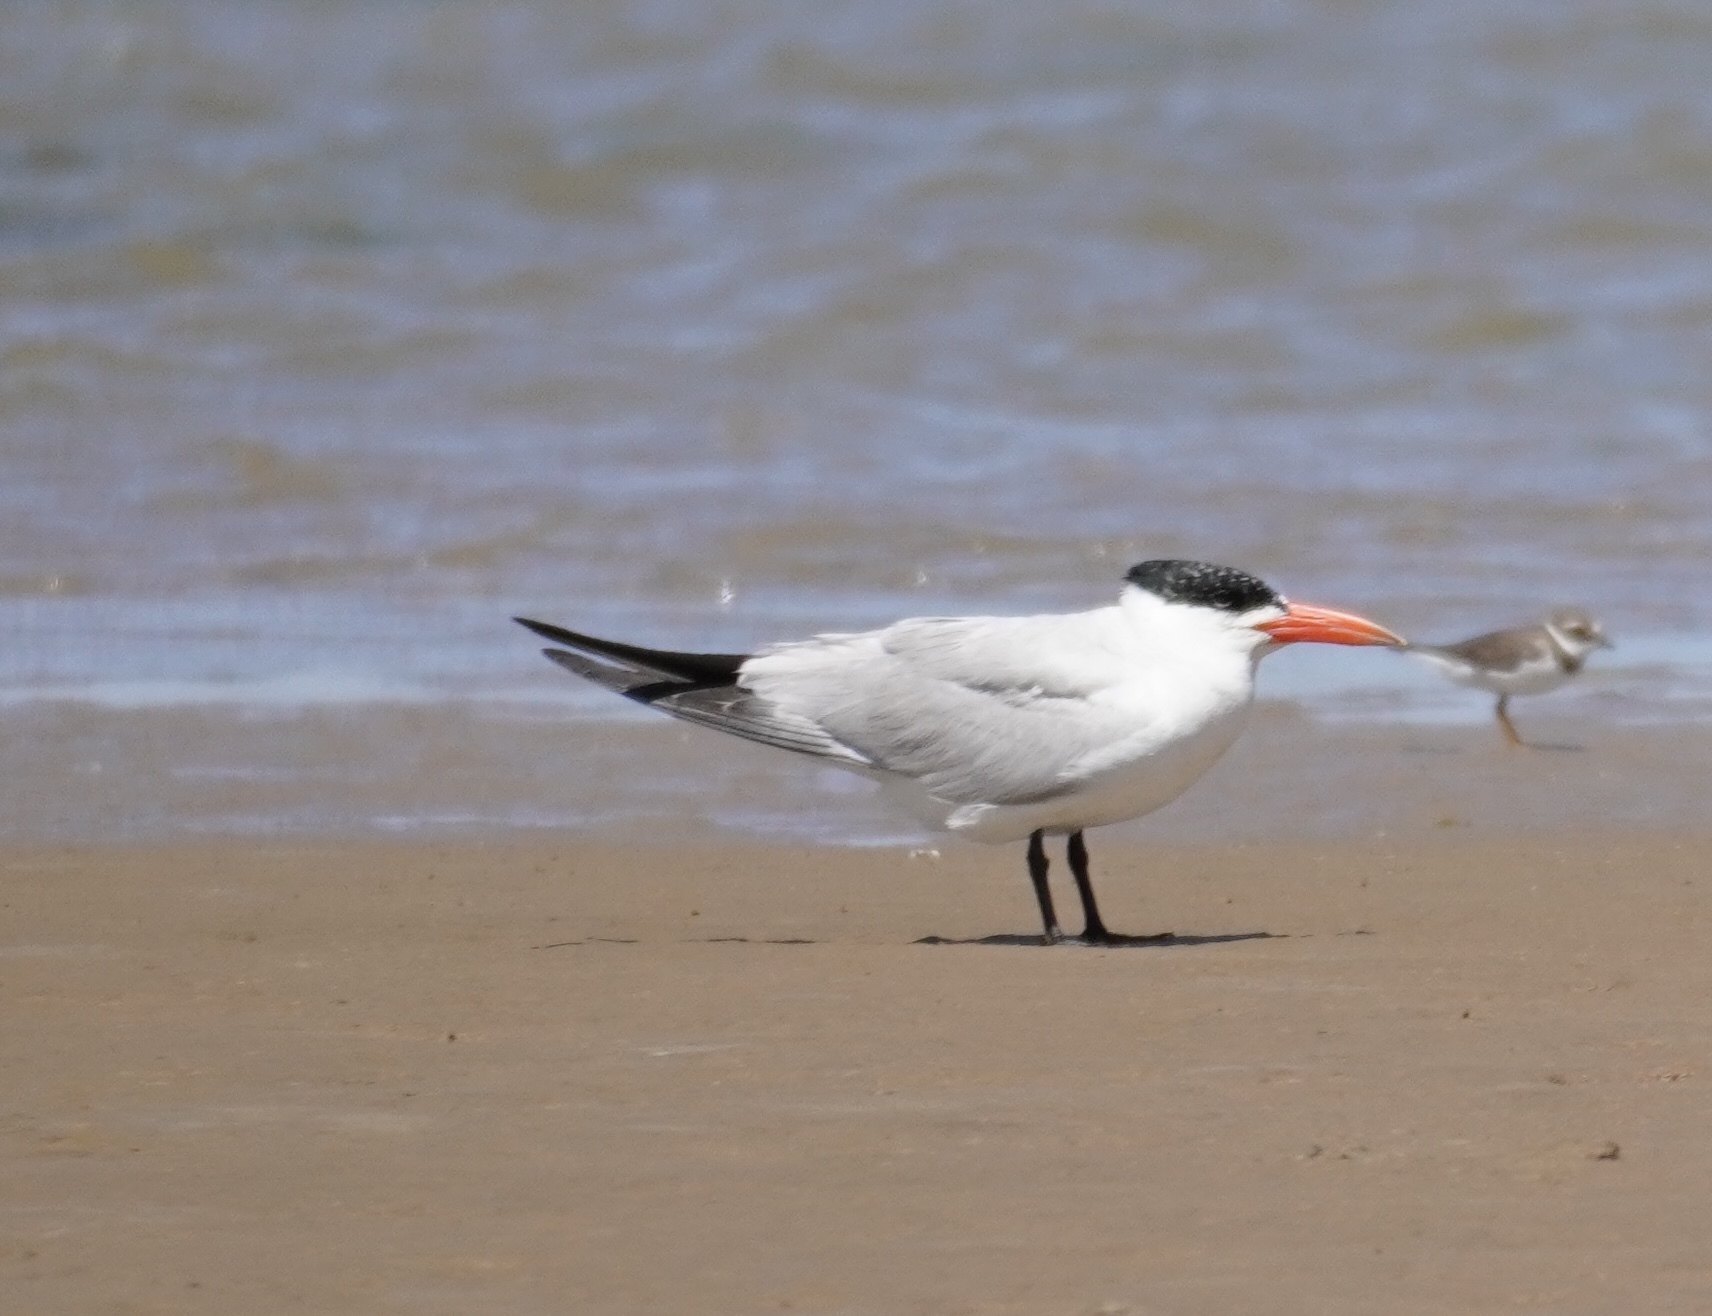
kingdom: Animalia
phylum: Chordata
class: Aves
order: Charadriiformes
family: Laridae
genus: Hydroprogne
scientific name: Hydroprogne caspia
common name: Caspian tern
